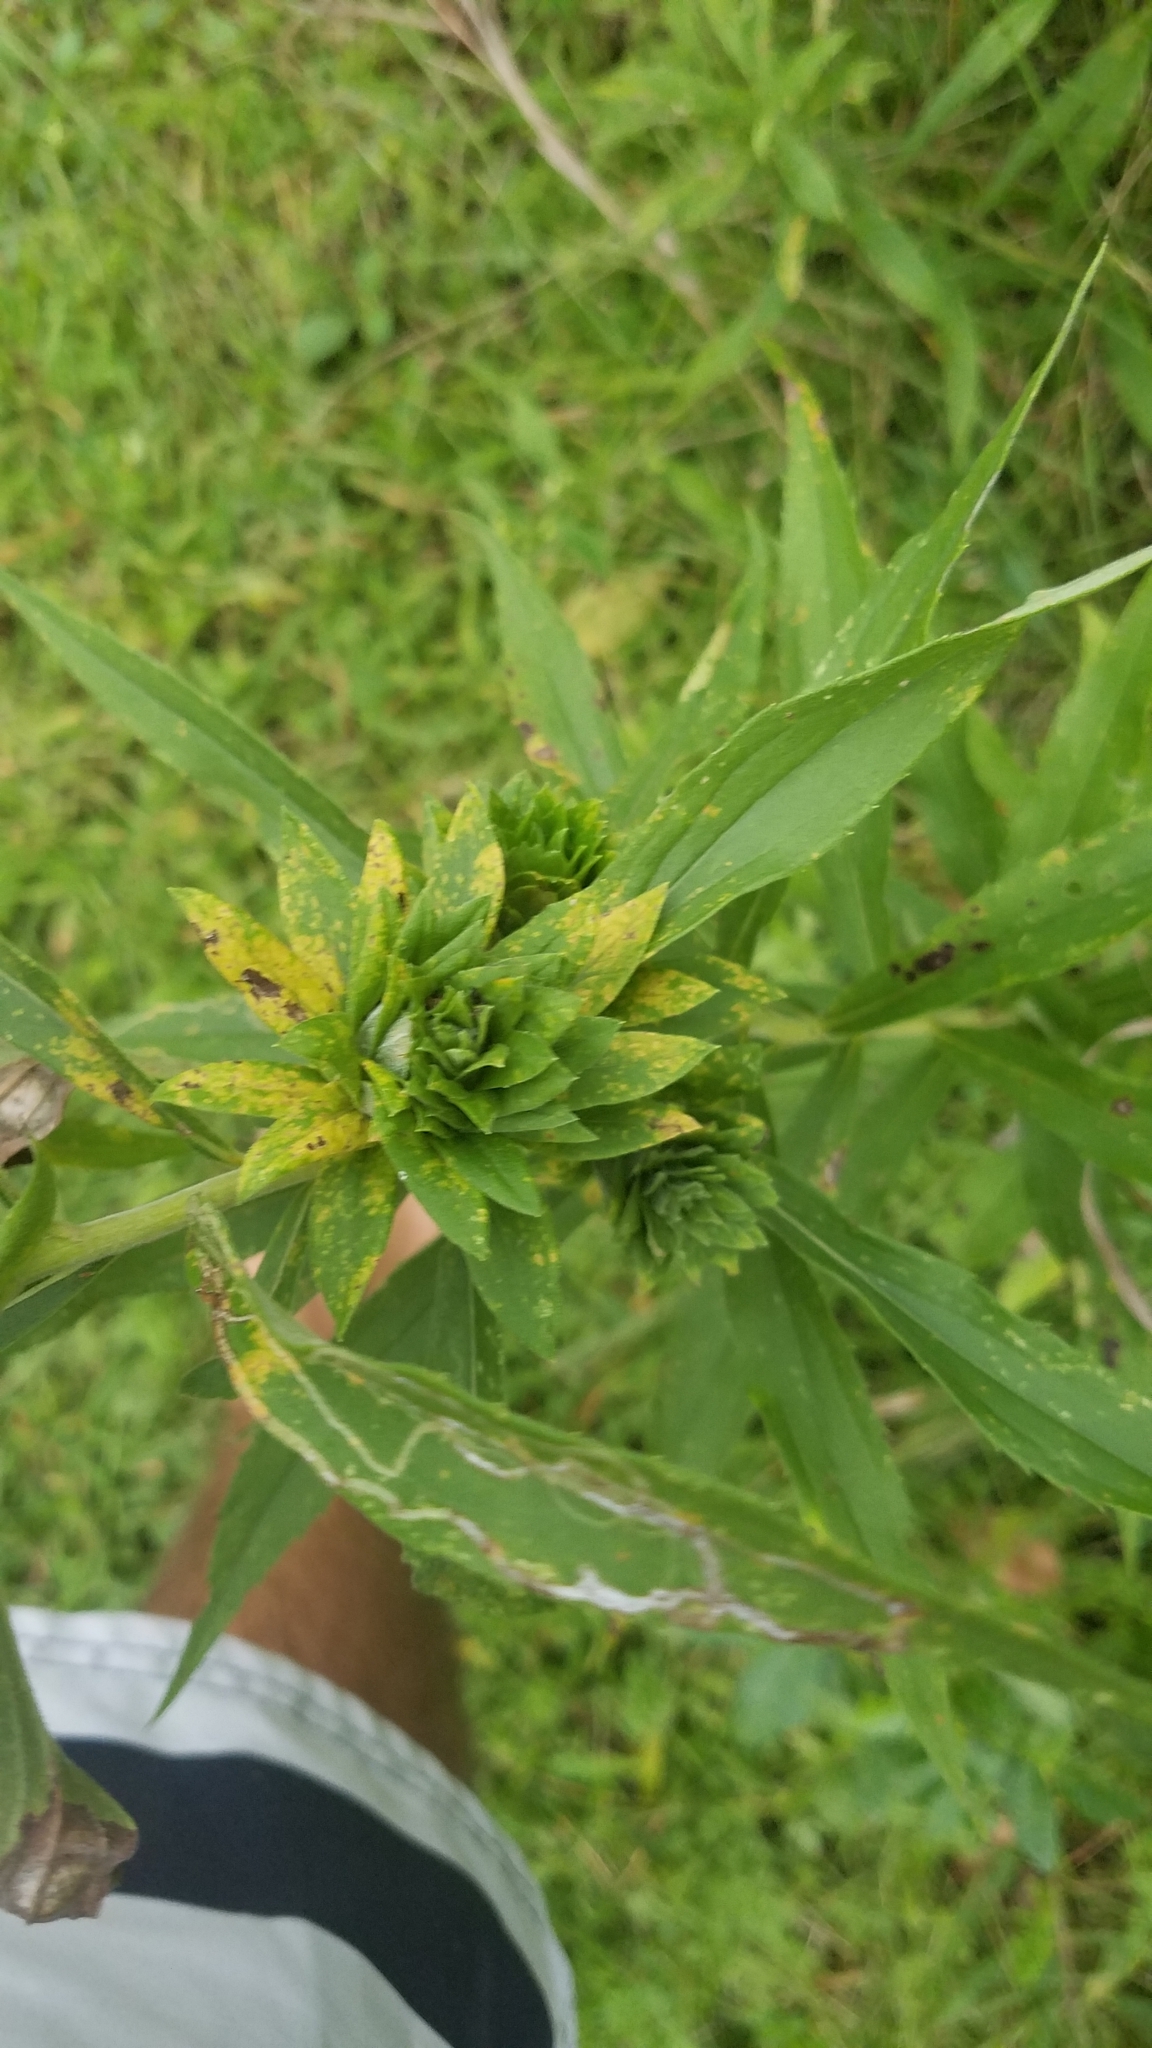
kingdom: Animalia
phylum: Arthropoda
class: Insecta
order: Diptera
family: Tephritidae
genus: Procecidochares
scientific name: Procecidochares atra
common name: Goldenrod brussels sprout gall fly
